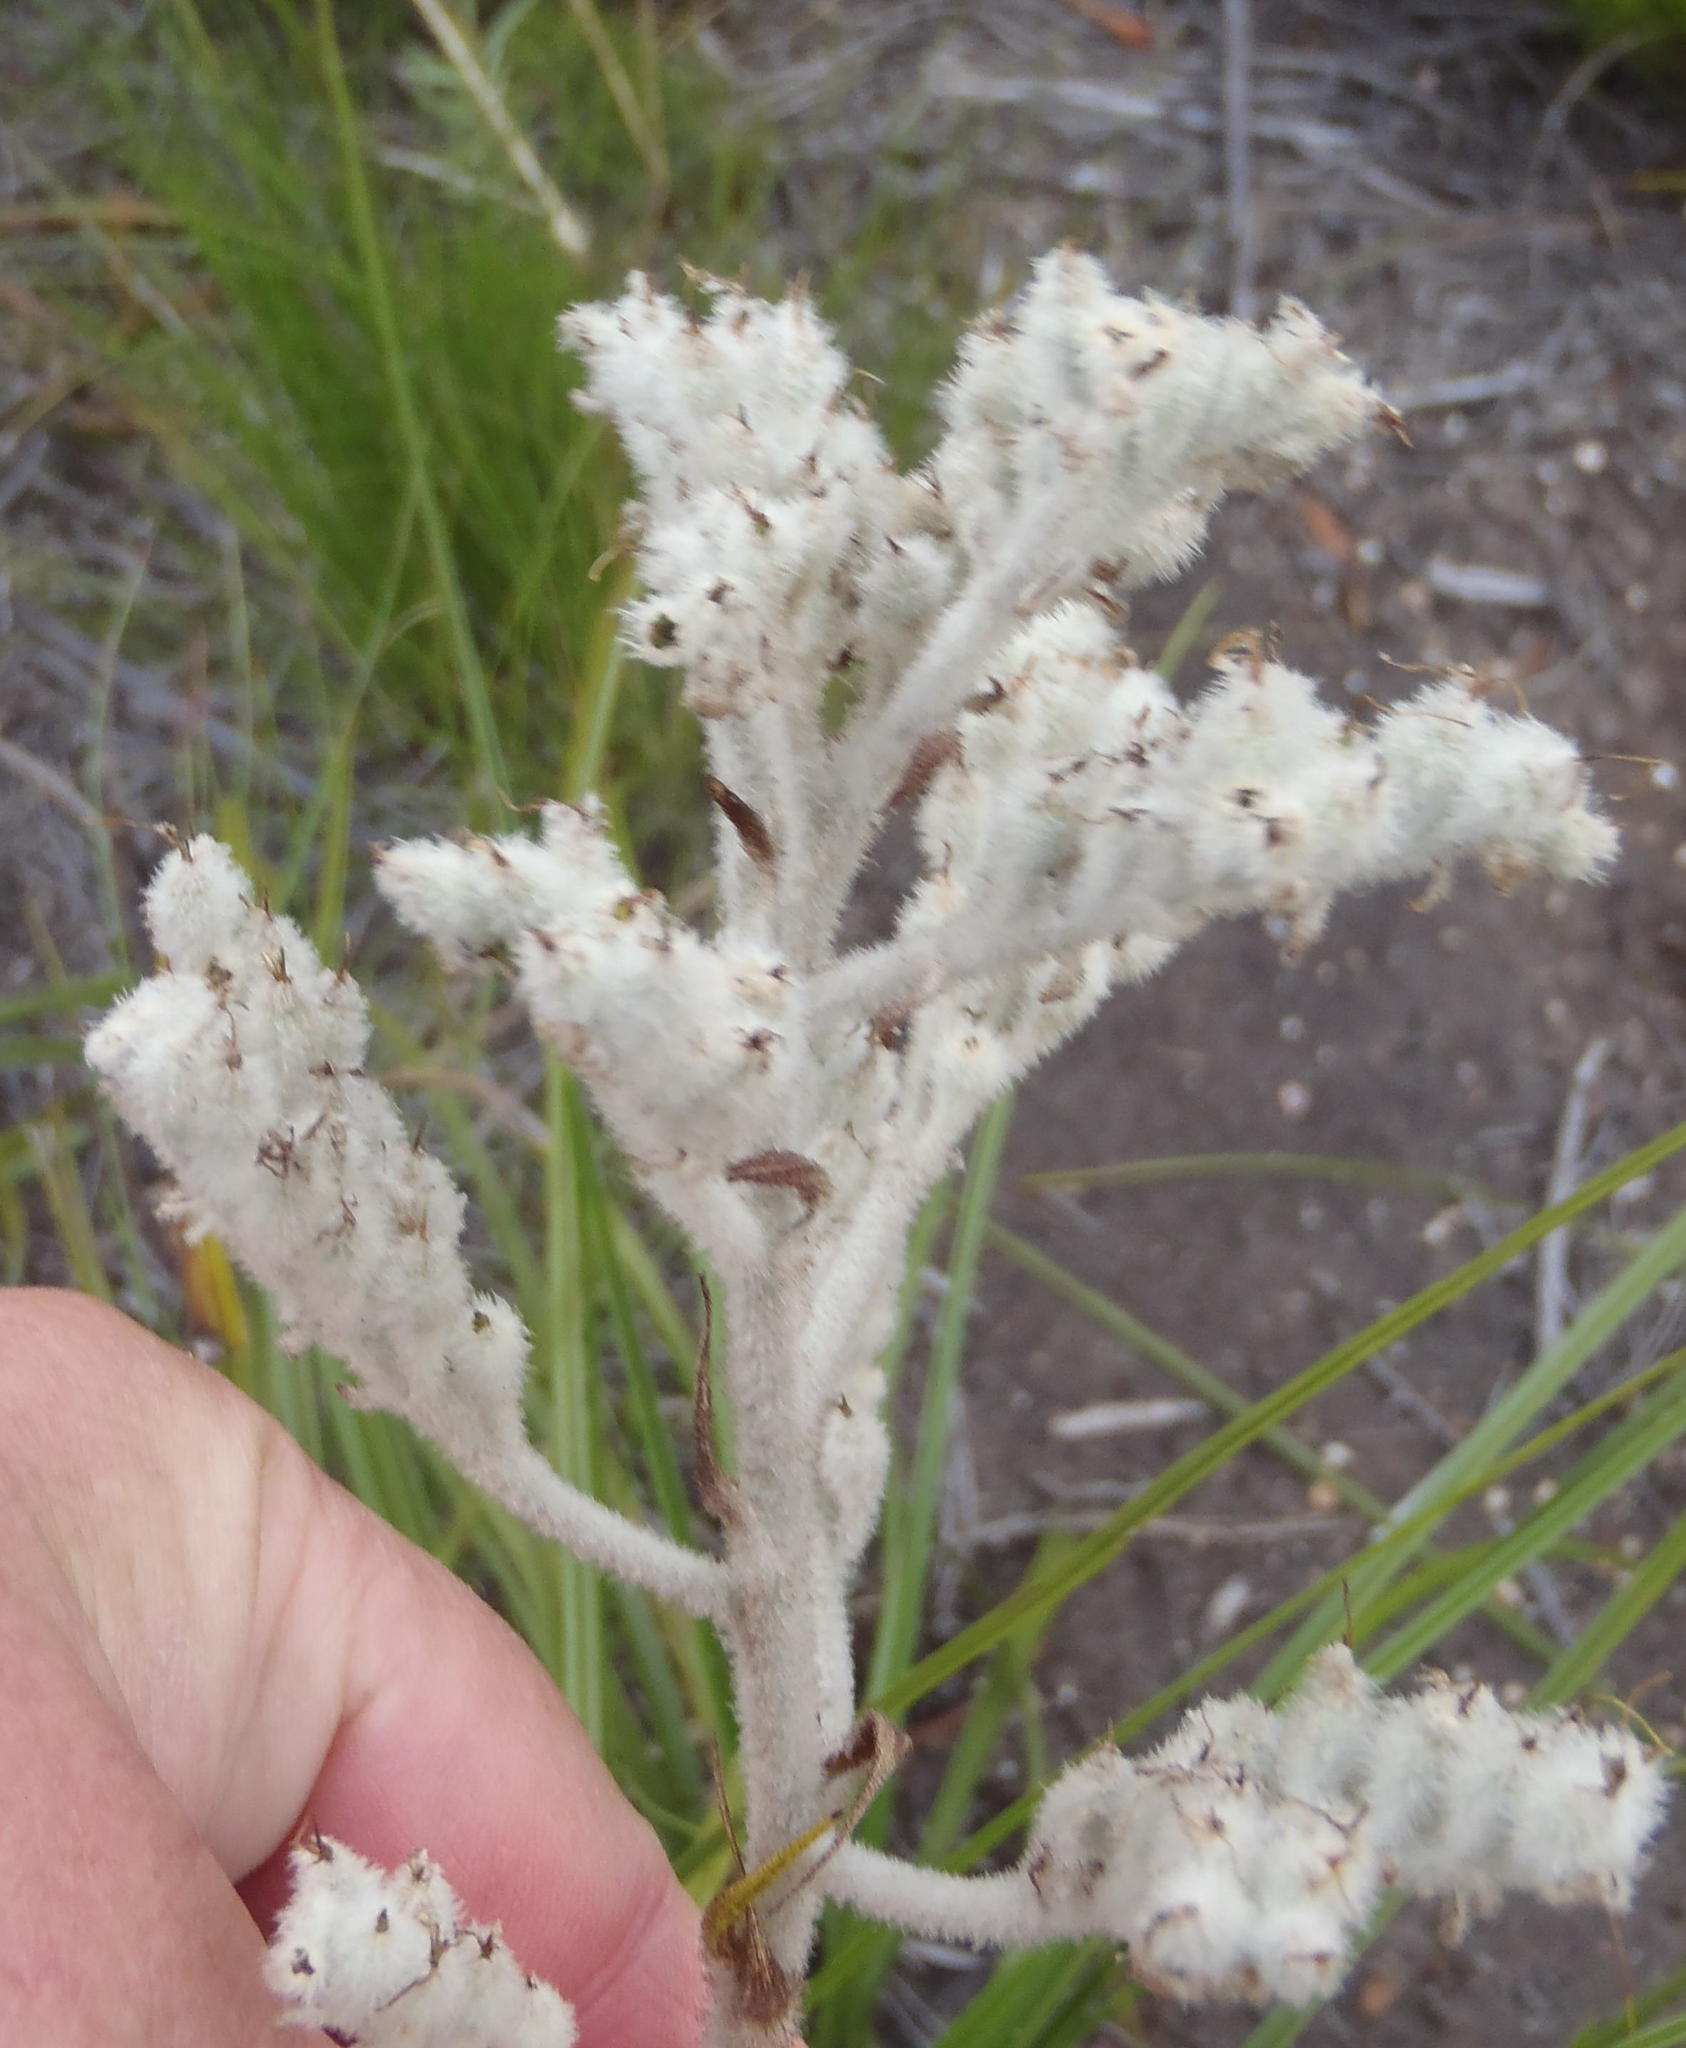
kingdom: Plantae
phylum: Tracheophyta
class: Liliopsida
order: Asparagales
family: Lanariaceae
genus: Lanaria
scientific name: Lanaria lanata
